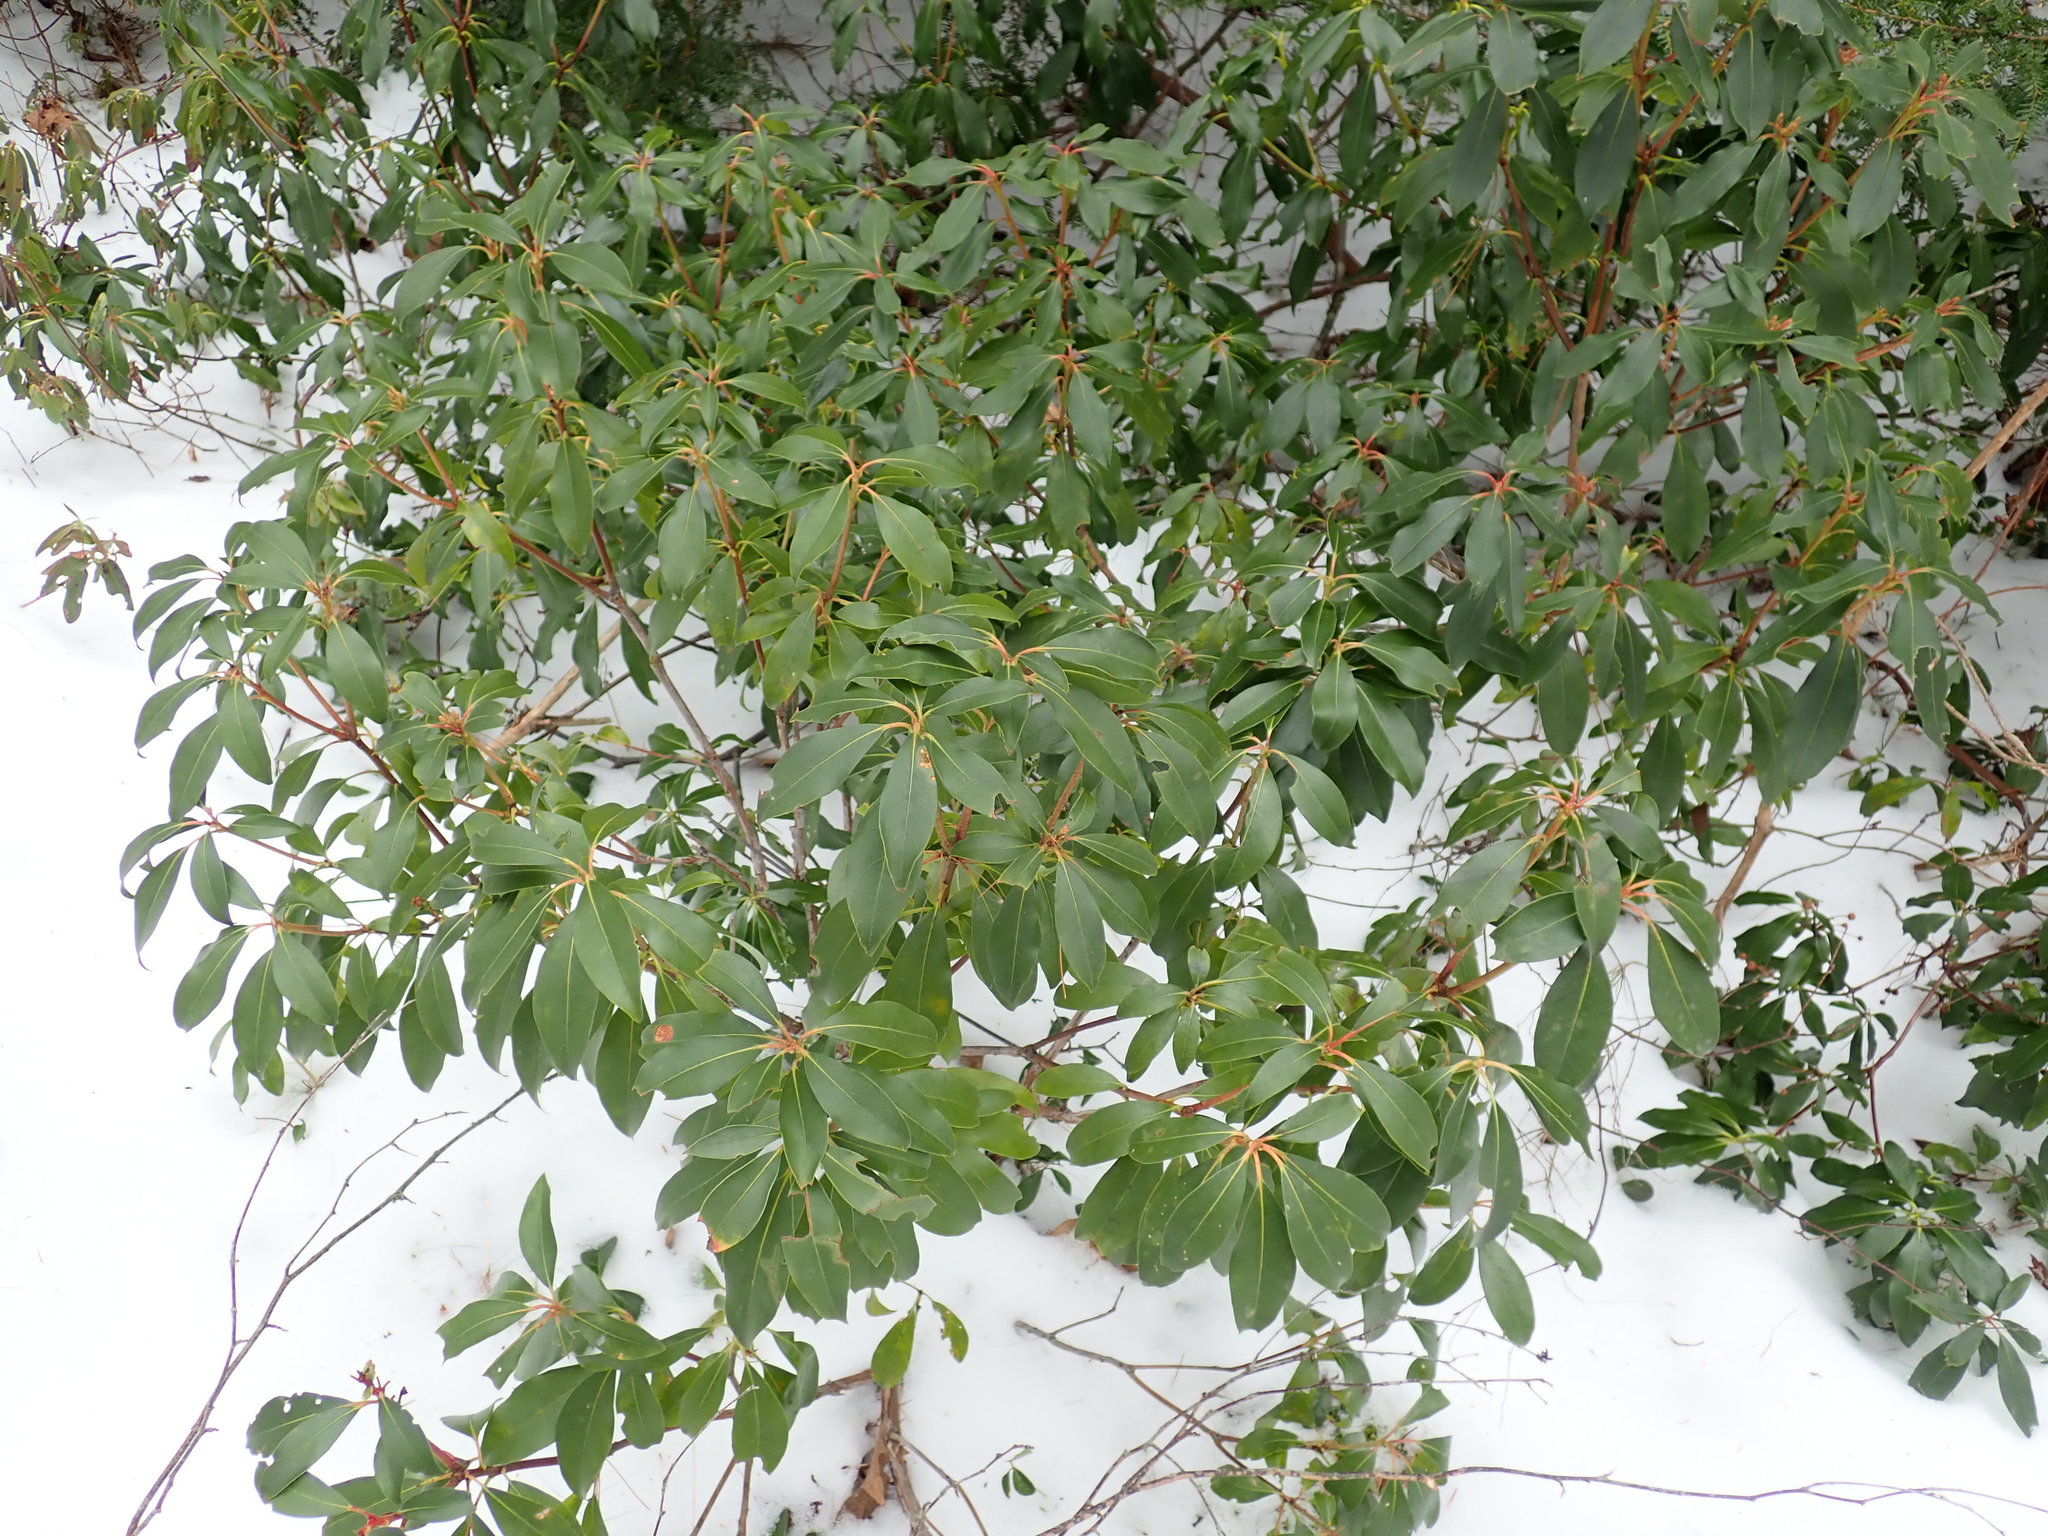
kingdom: Plantae
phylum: Tracheophyta
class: Magnoliopsida
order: Ericales
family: Ericaceae
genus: Kalmia
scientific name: Kalmia latifolia
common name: Mountain-laurel
